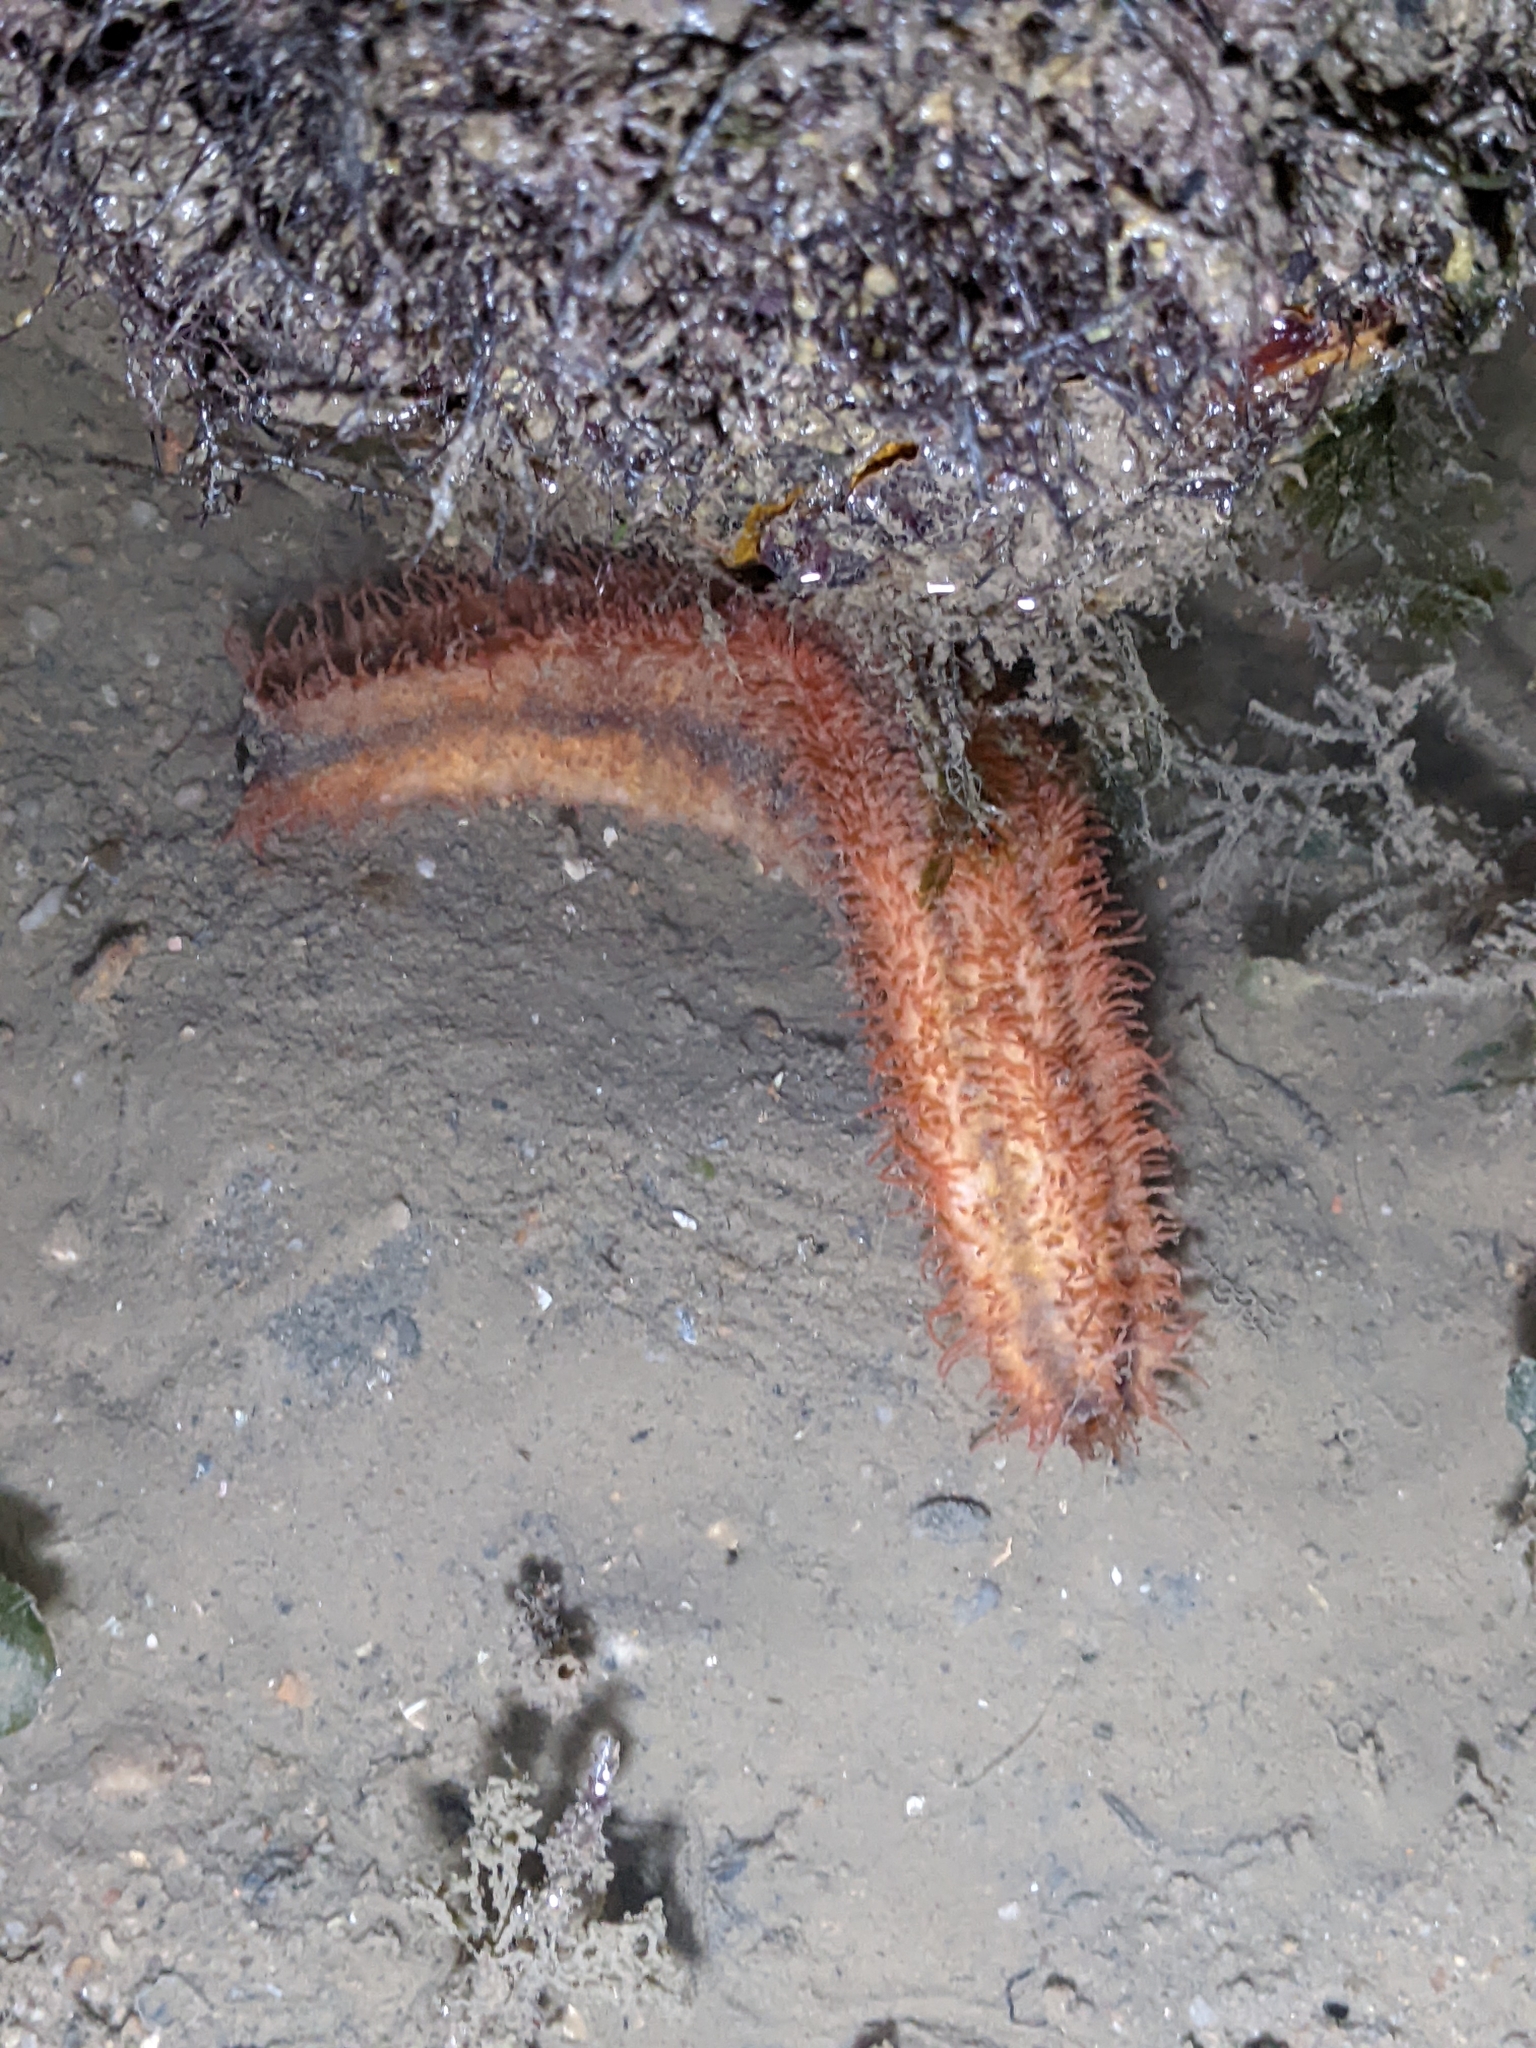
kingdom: Animalia
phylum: Echinodermata
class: Holothuroidea
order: Dendrochirotida
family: Cucumariidae
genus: Mensamaria
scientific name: Mensamaria intercedens
